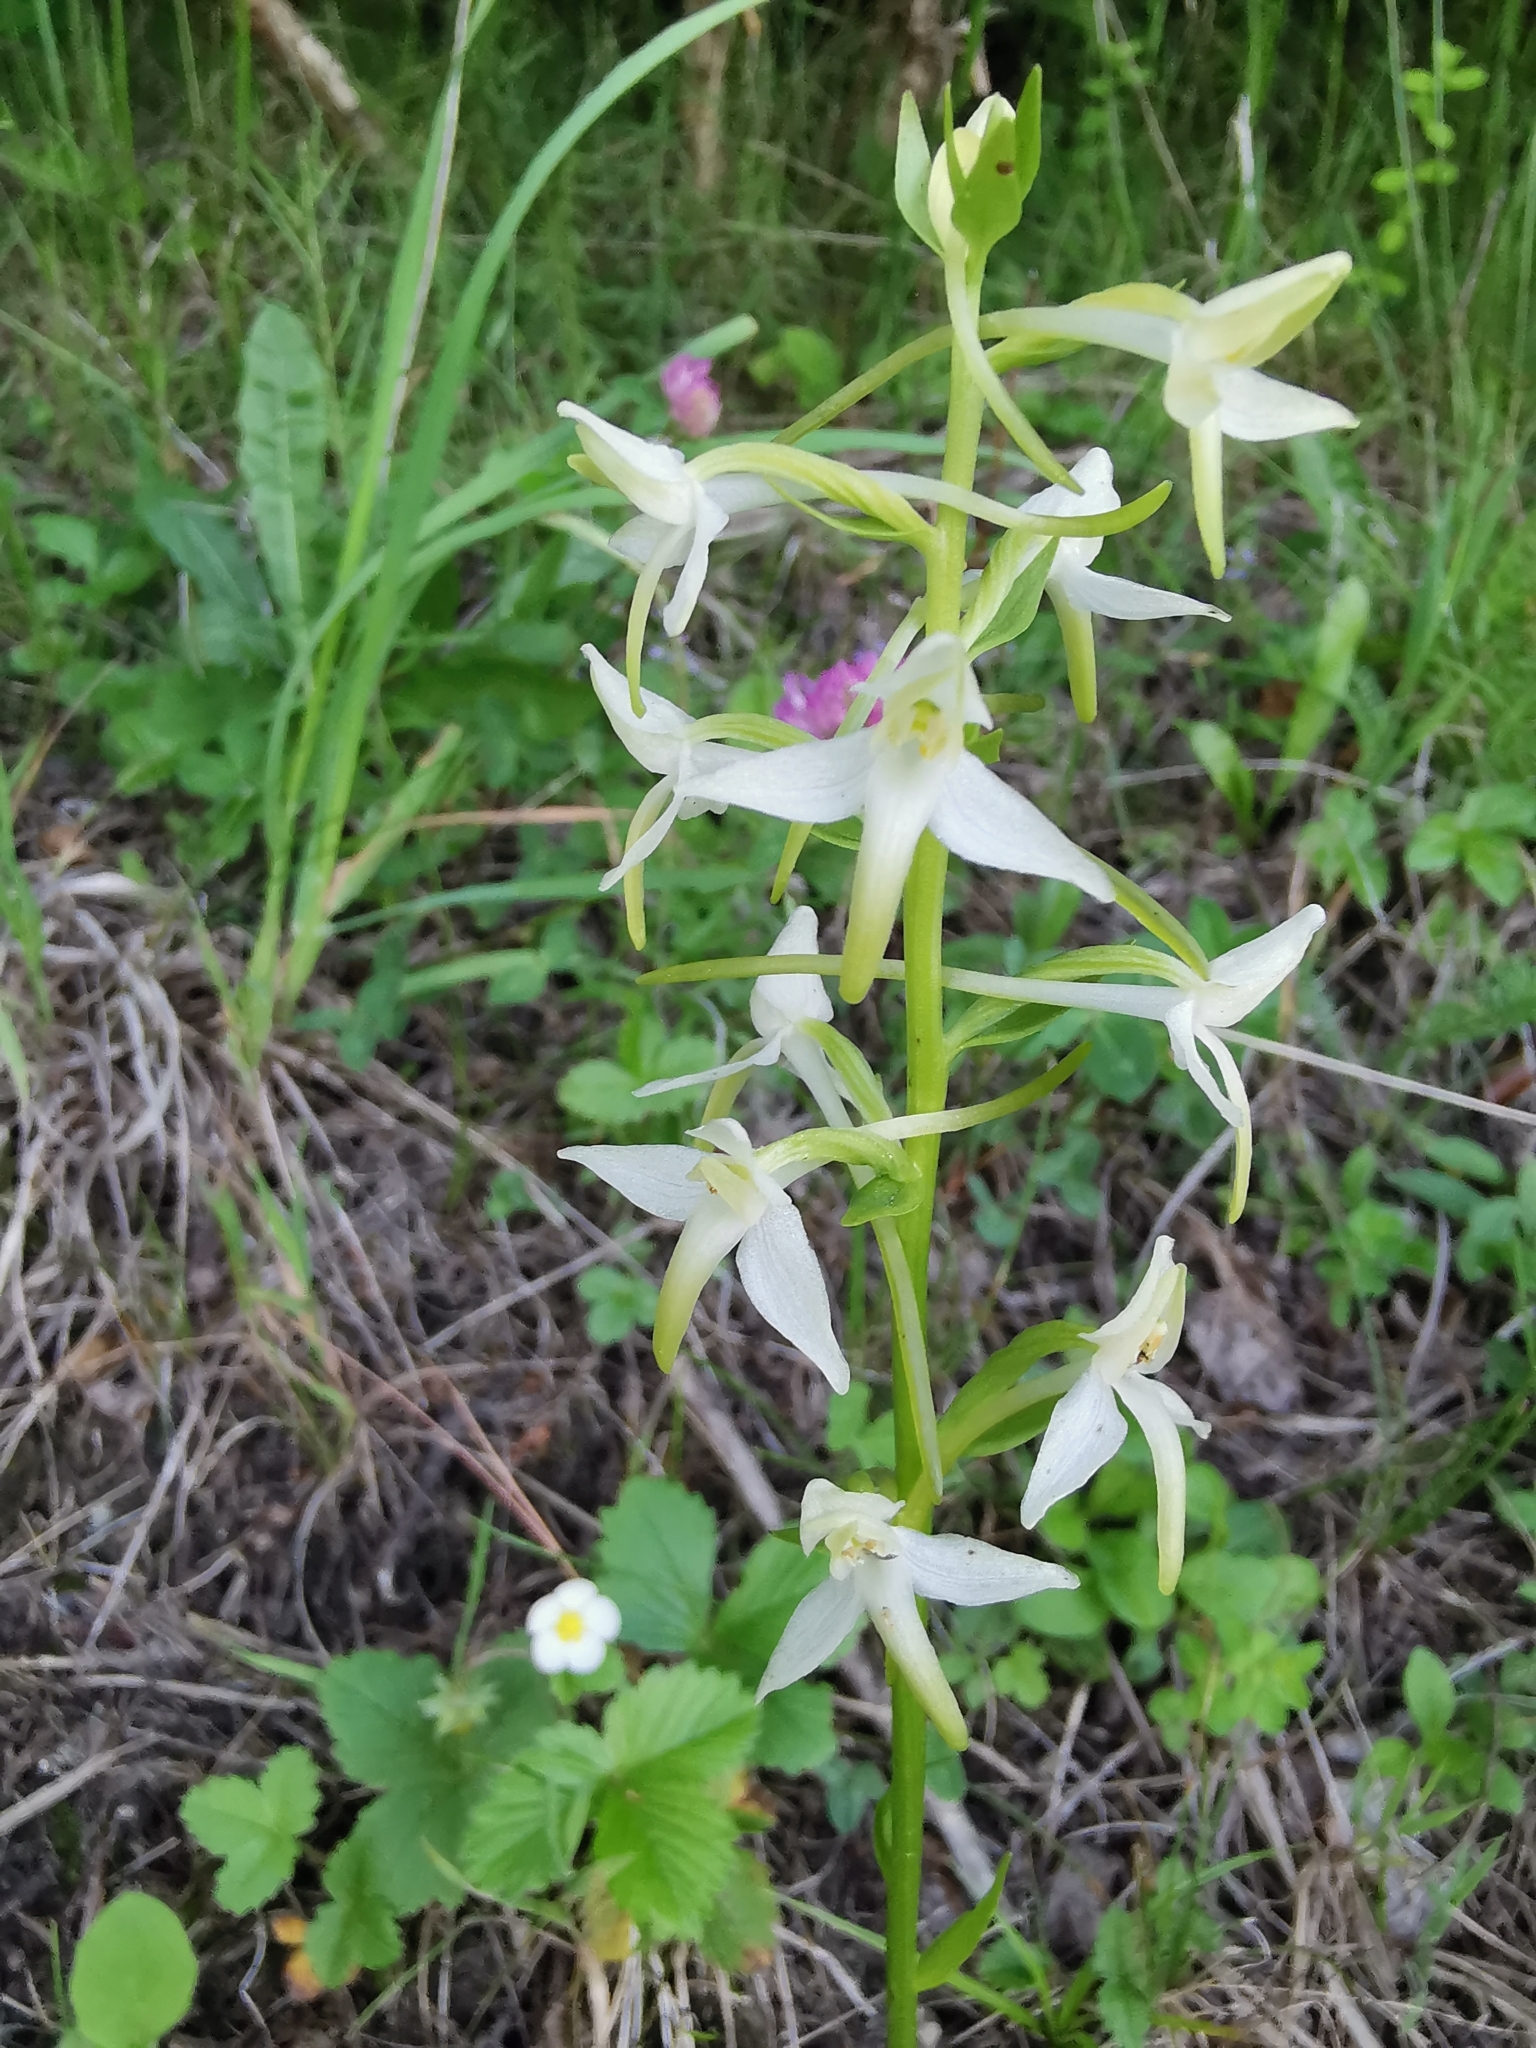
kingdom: Plantae
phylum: Tracheophyta
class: Liliopsida
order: Asparagales
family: Orchidaceae
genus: Platanthera
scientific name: Platanthera bifolia
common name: Lesser butterfly-orchid
